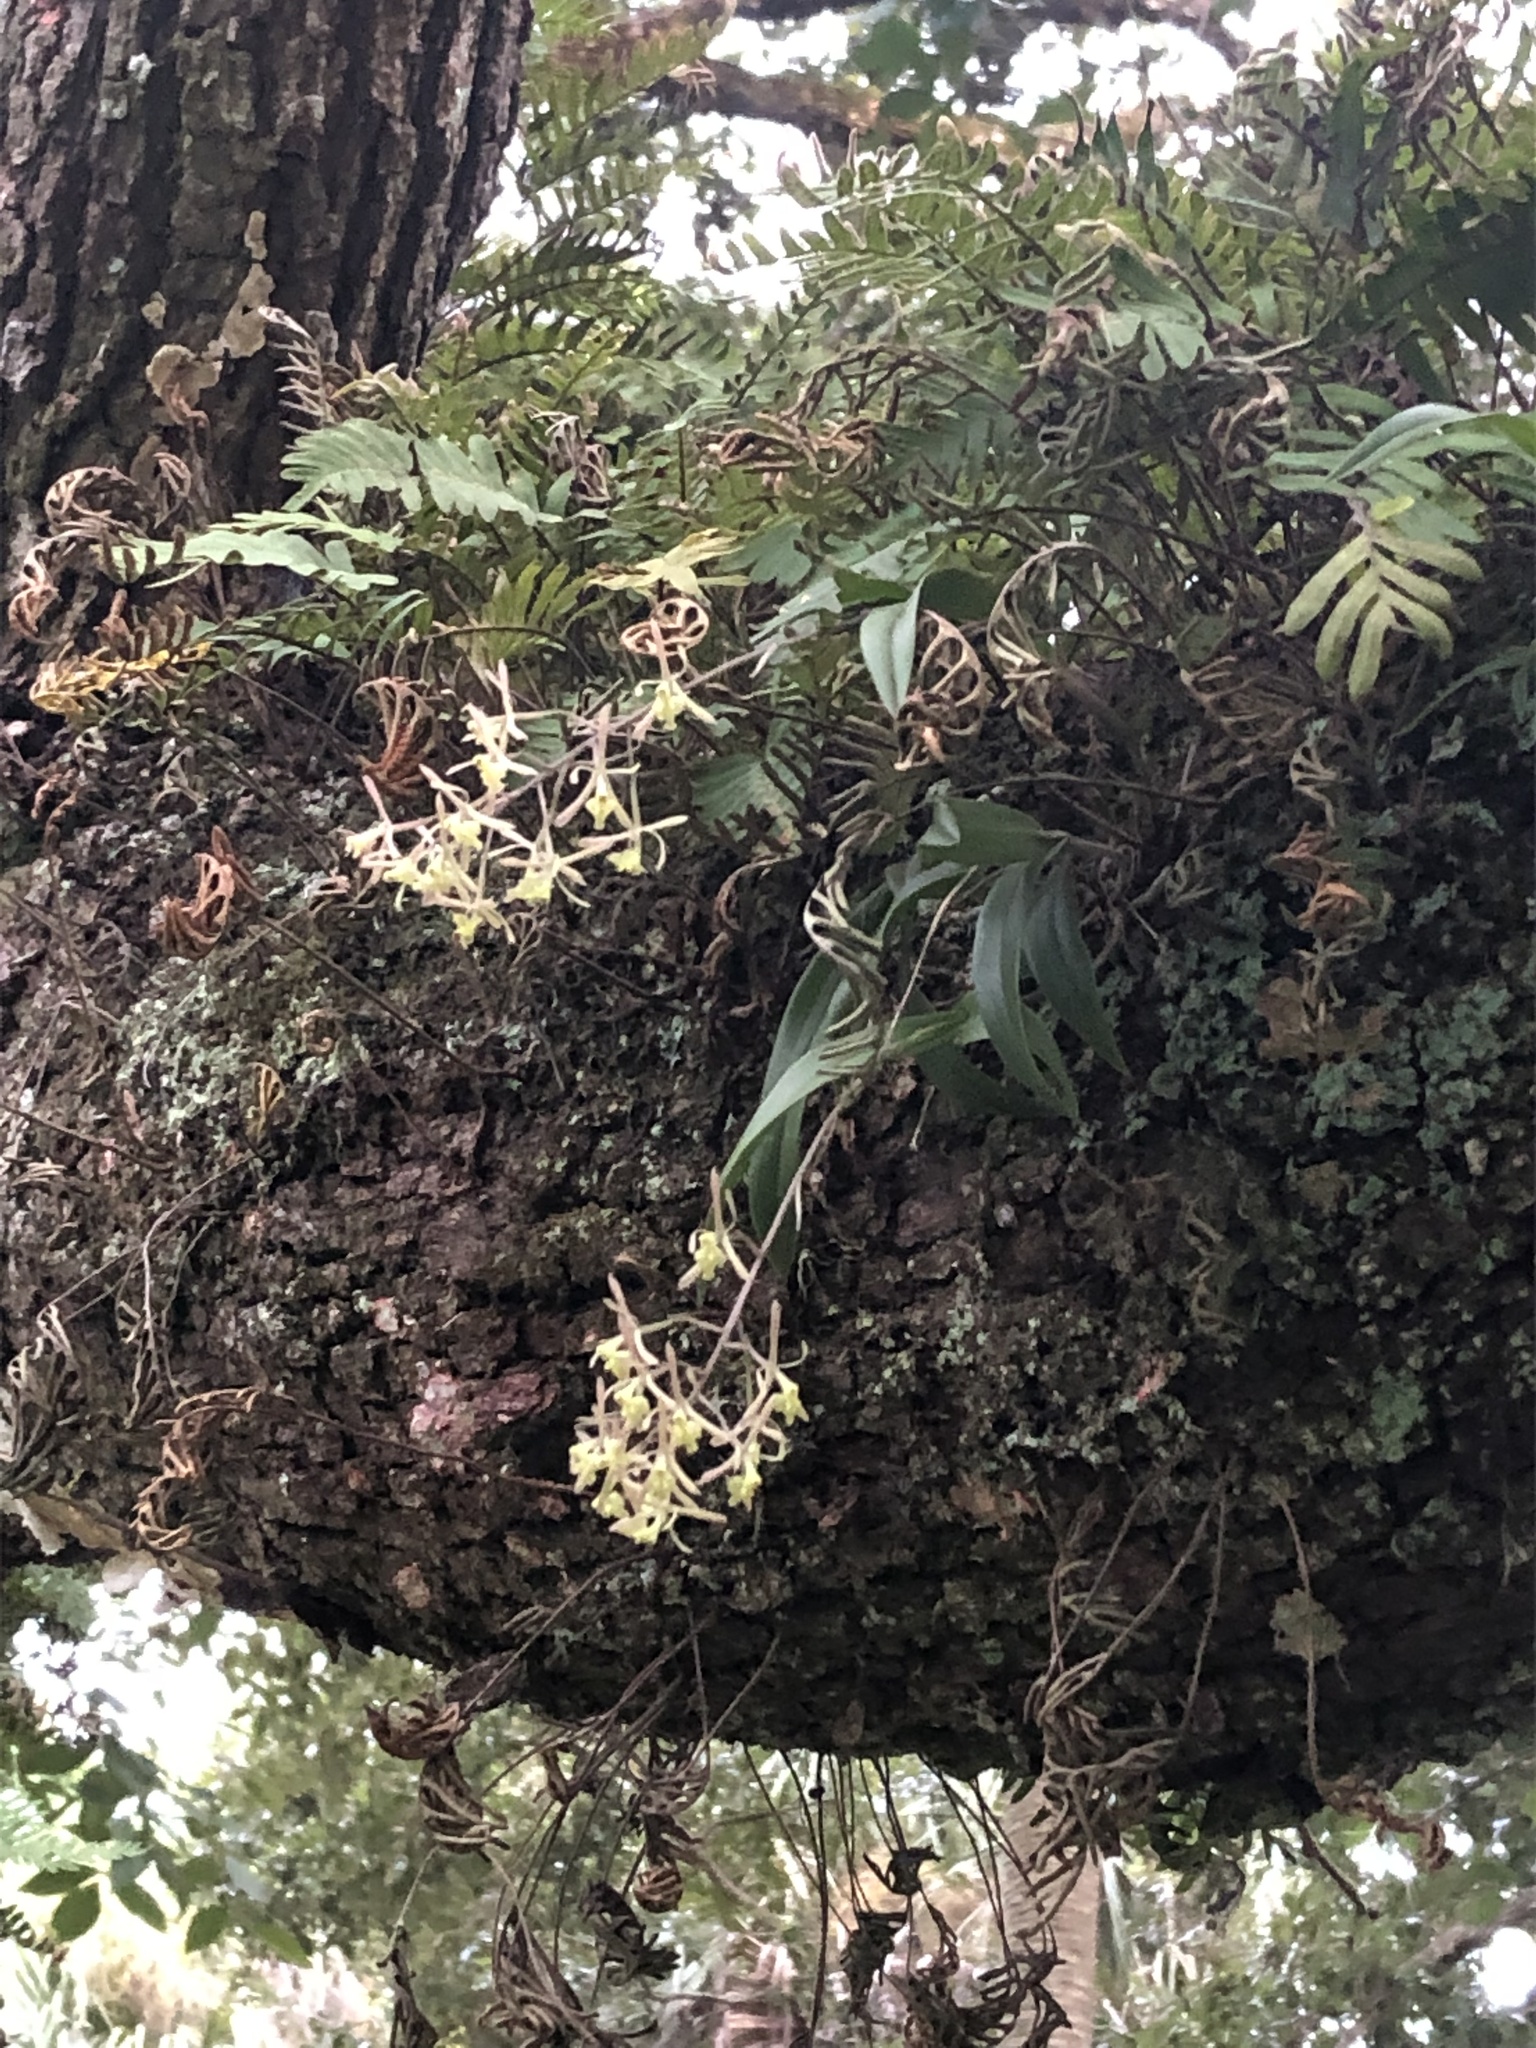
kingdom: Plantae
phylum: Tracheophyta
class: Liliopsida
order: Asparagales
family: Orchidaceae
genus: Epidendrum
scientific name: Epidendrum conopseum
